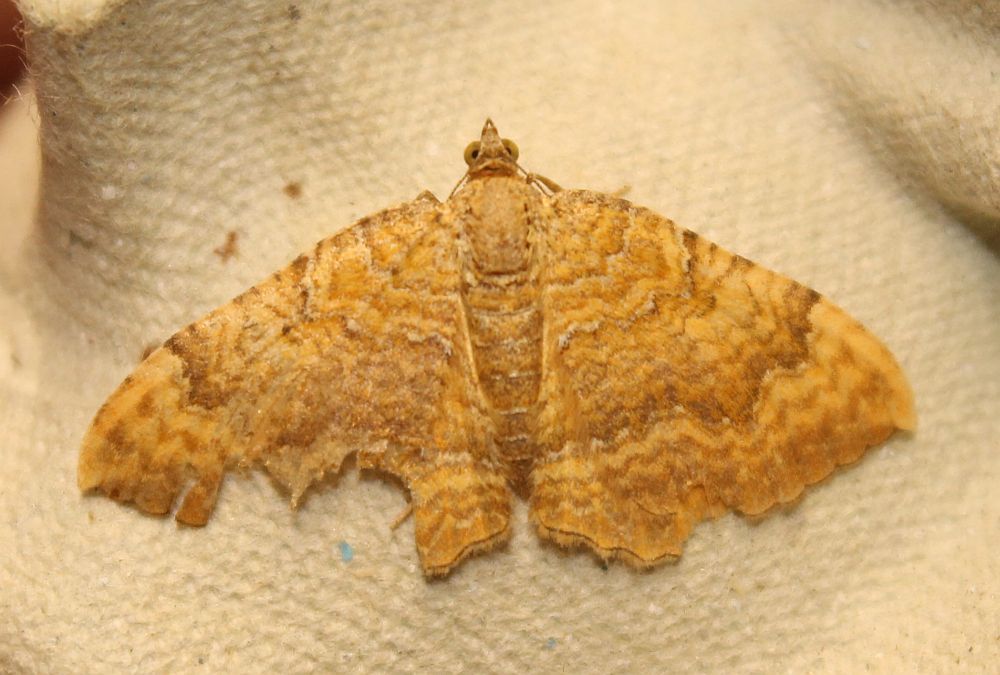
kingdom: Animalia
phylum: Arthropoda
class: Insecta
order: Lepidoptera
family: Geometridae
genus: Camptogramma
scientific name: Camptogramma bilineata
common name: Yellow shell
